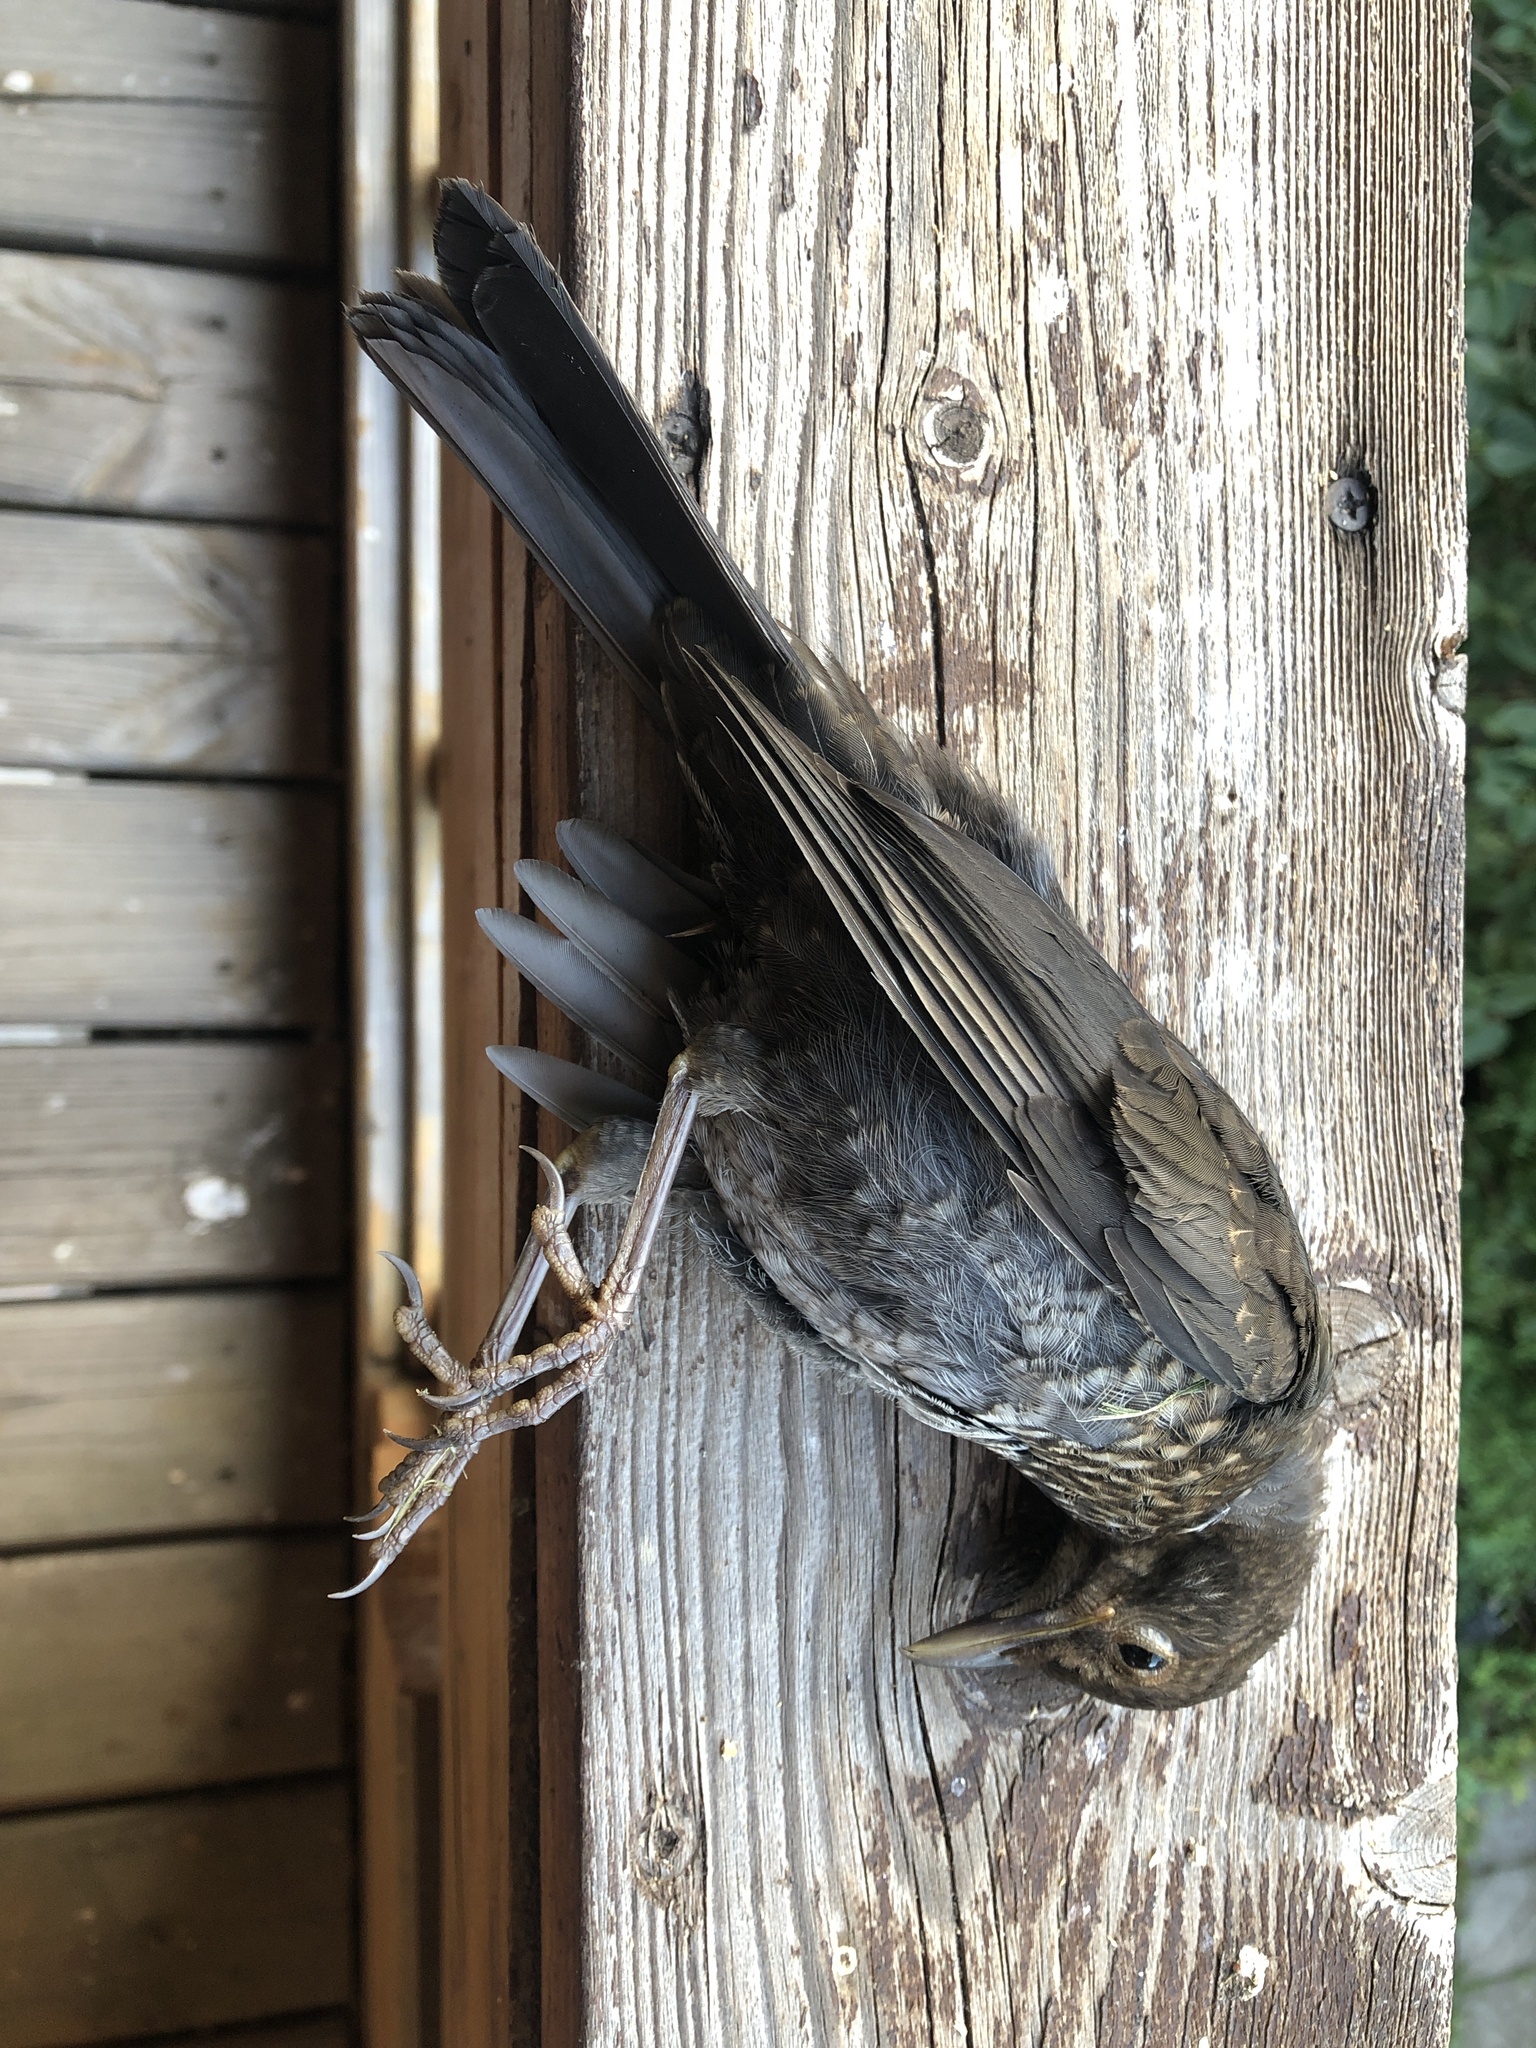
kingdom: Animalia
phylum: Chordata
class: Aves
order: Passeriformes
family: Turdidae
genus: Turdus
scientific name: Turdus merula
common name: Common blackbird
